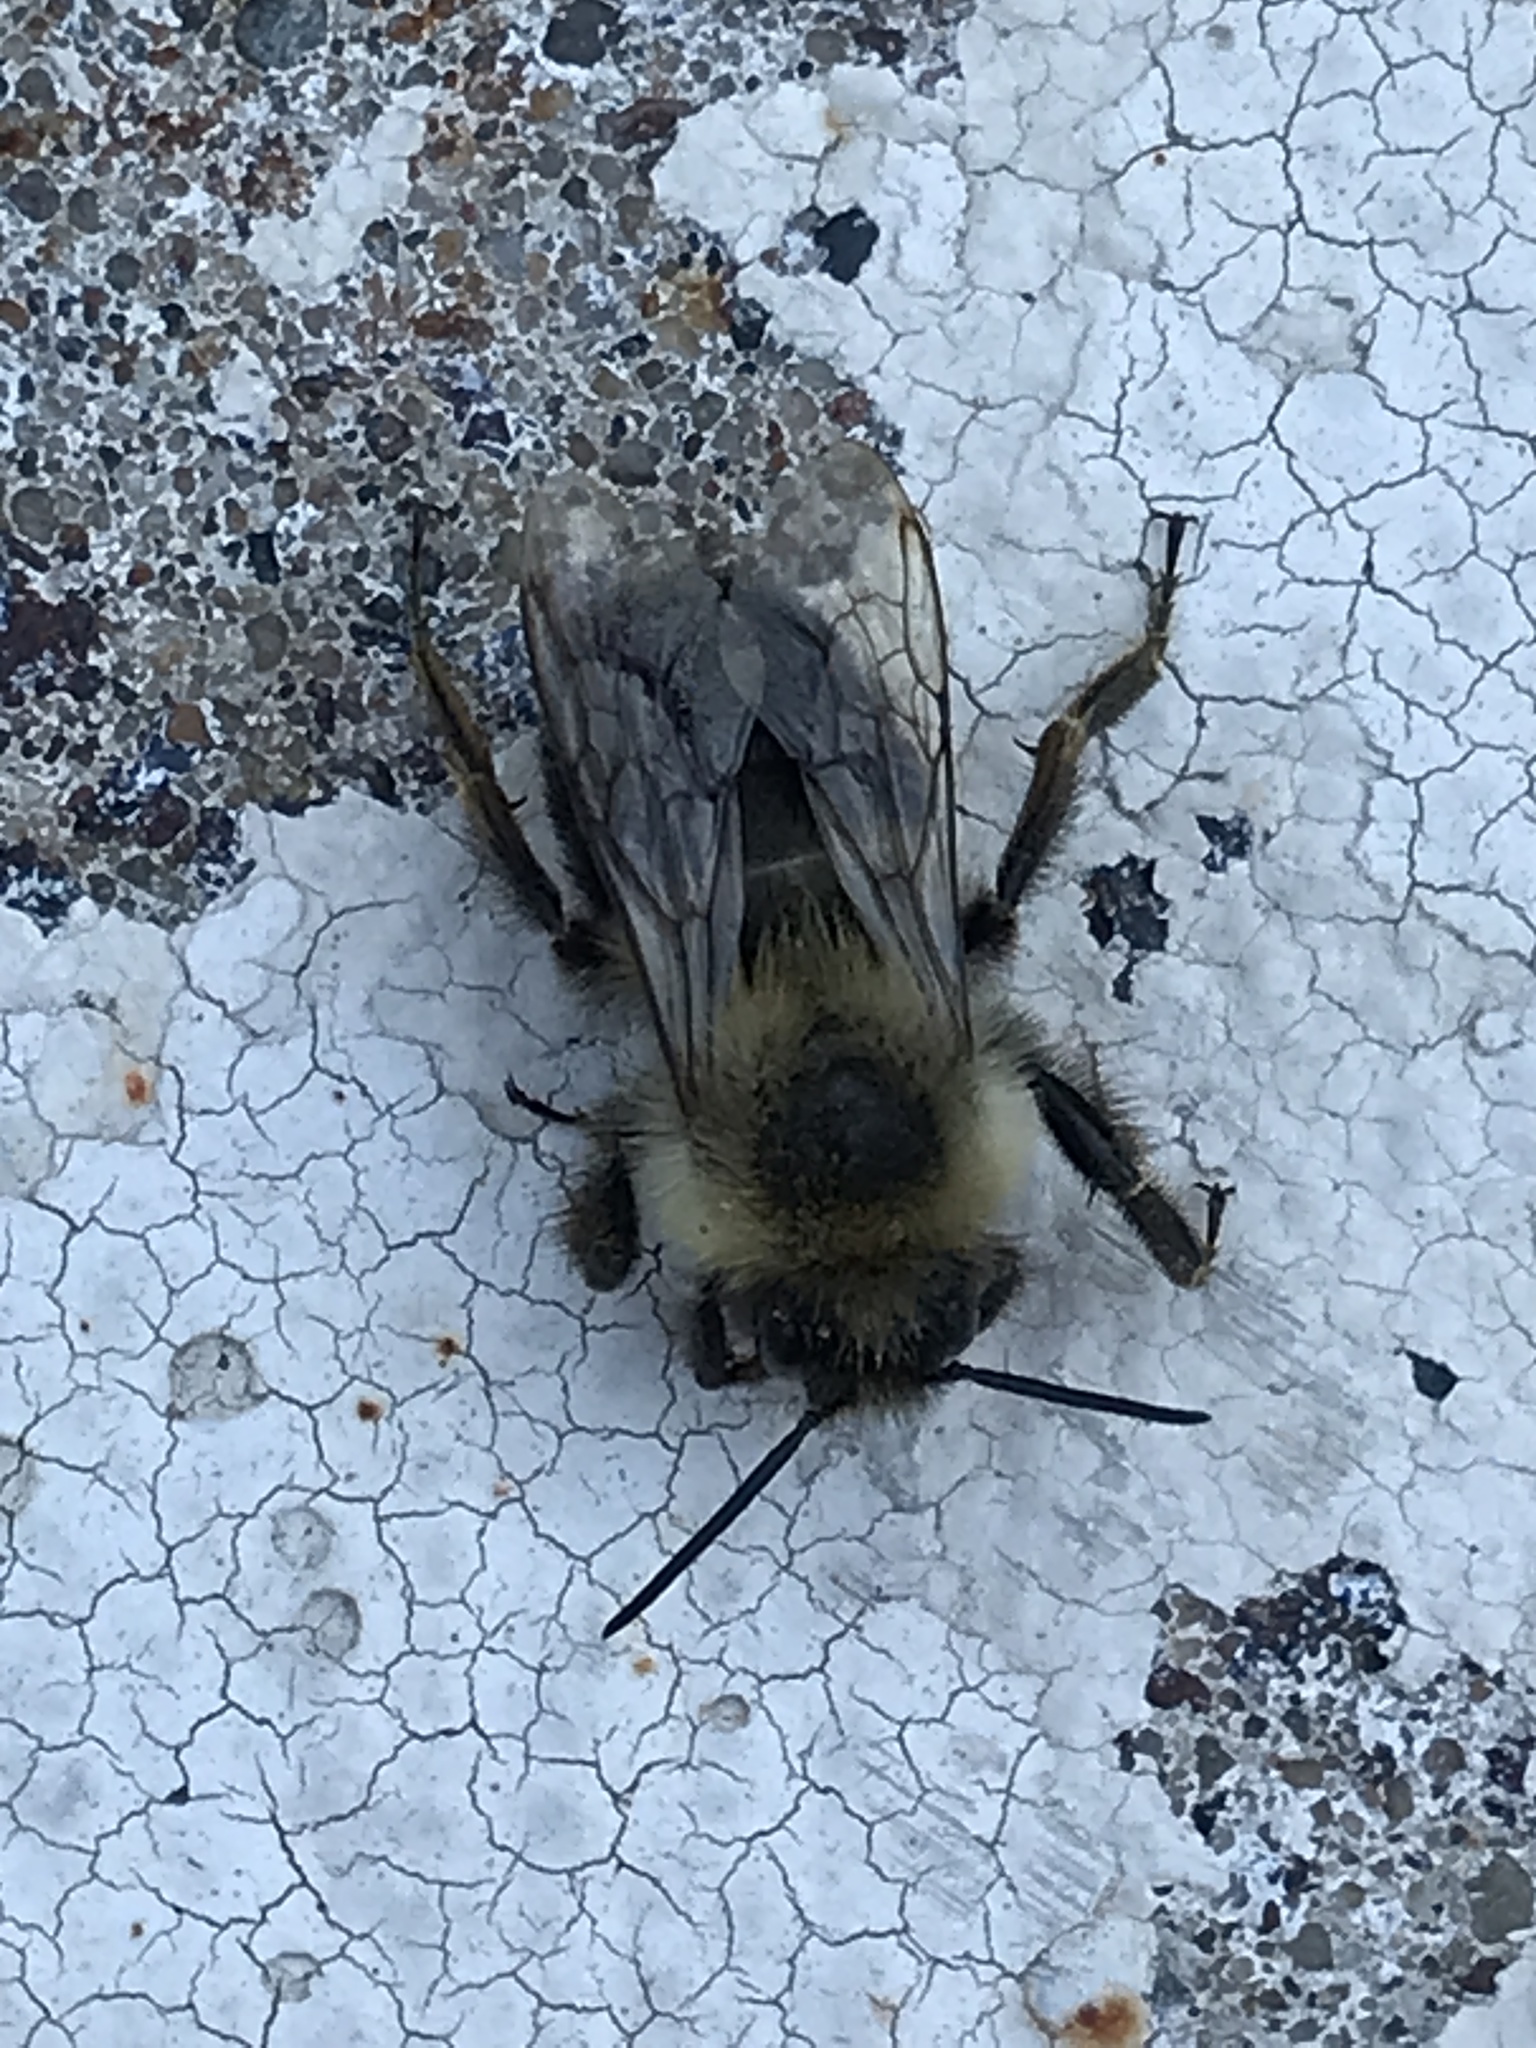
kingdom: Animalia
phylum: Arthropoda
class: Insecta
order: Hymenoptera
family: Apidae
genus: Bombus
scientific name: Bombus impatiens
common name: Common eastern bumble bee
